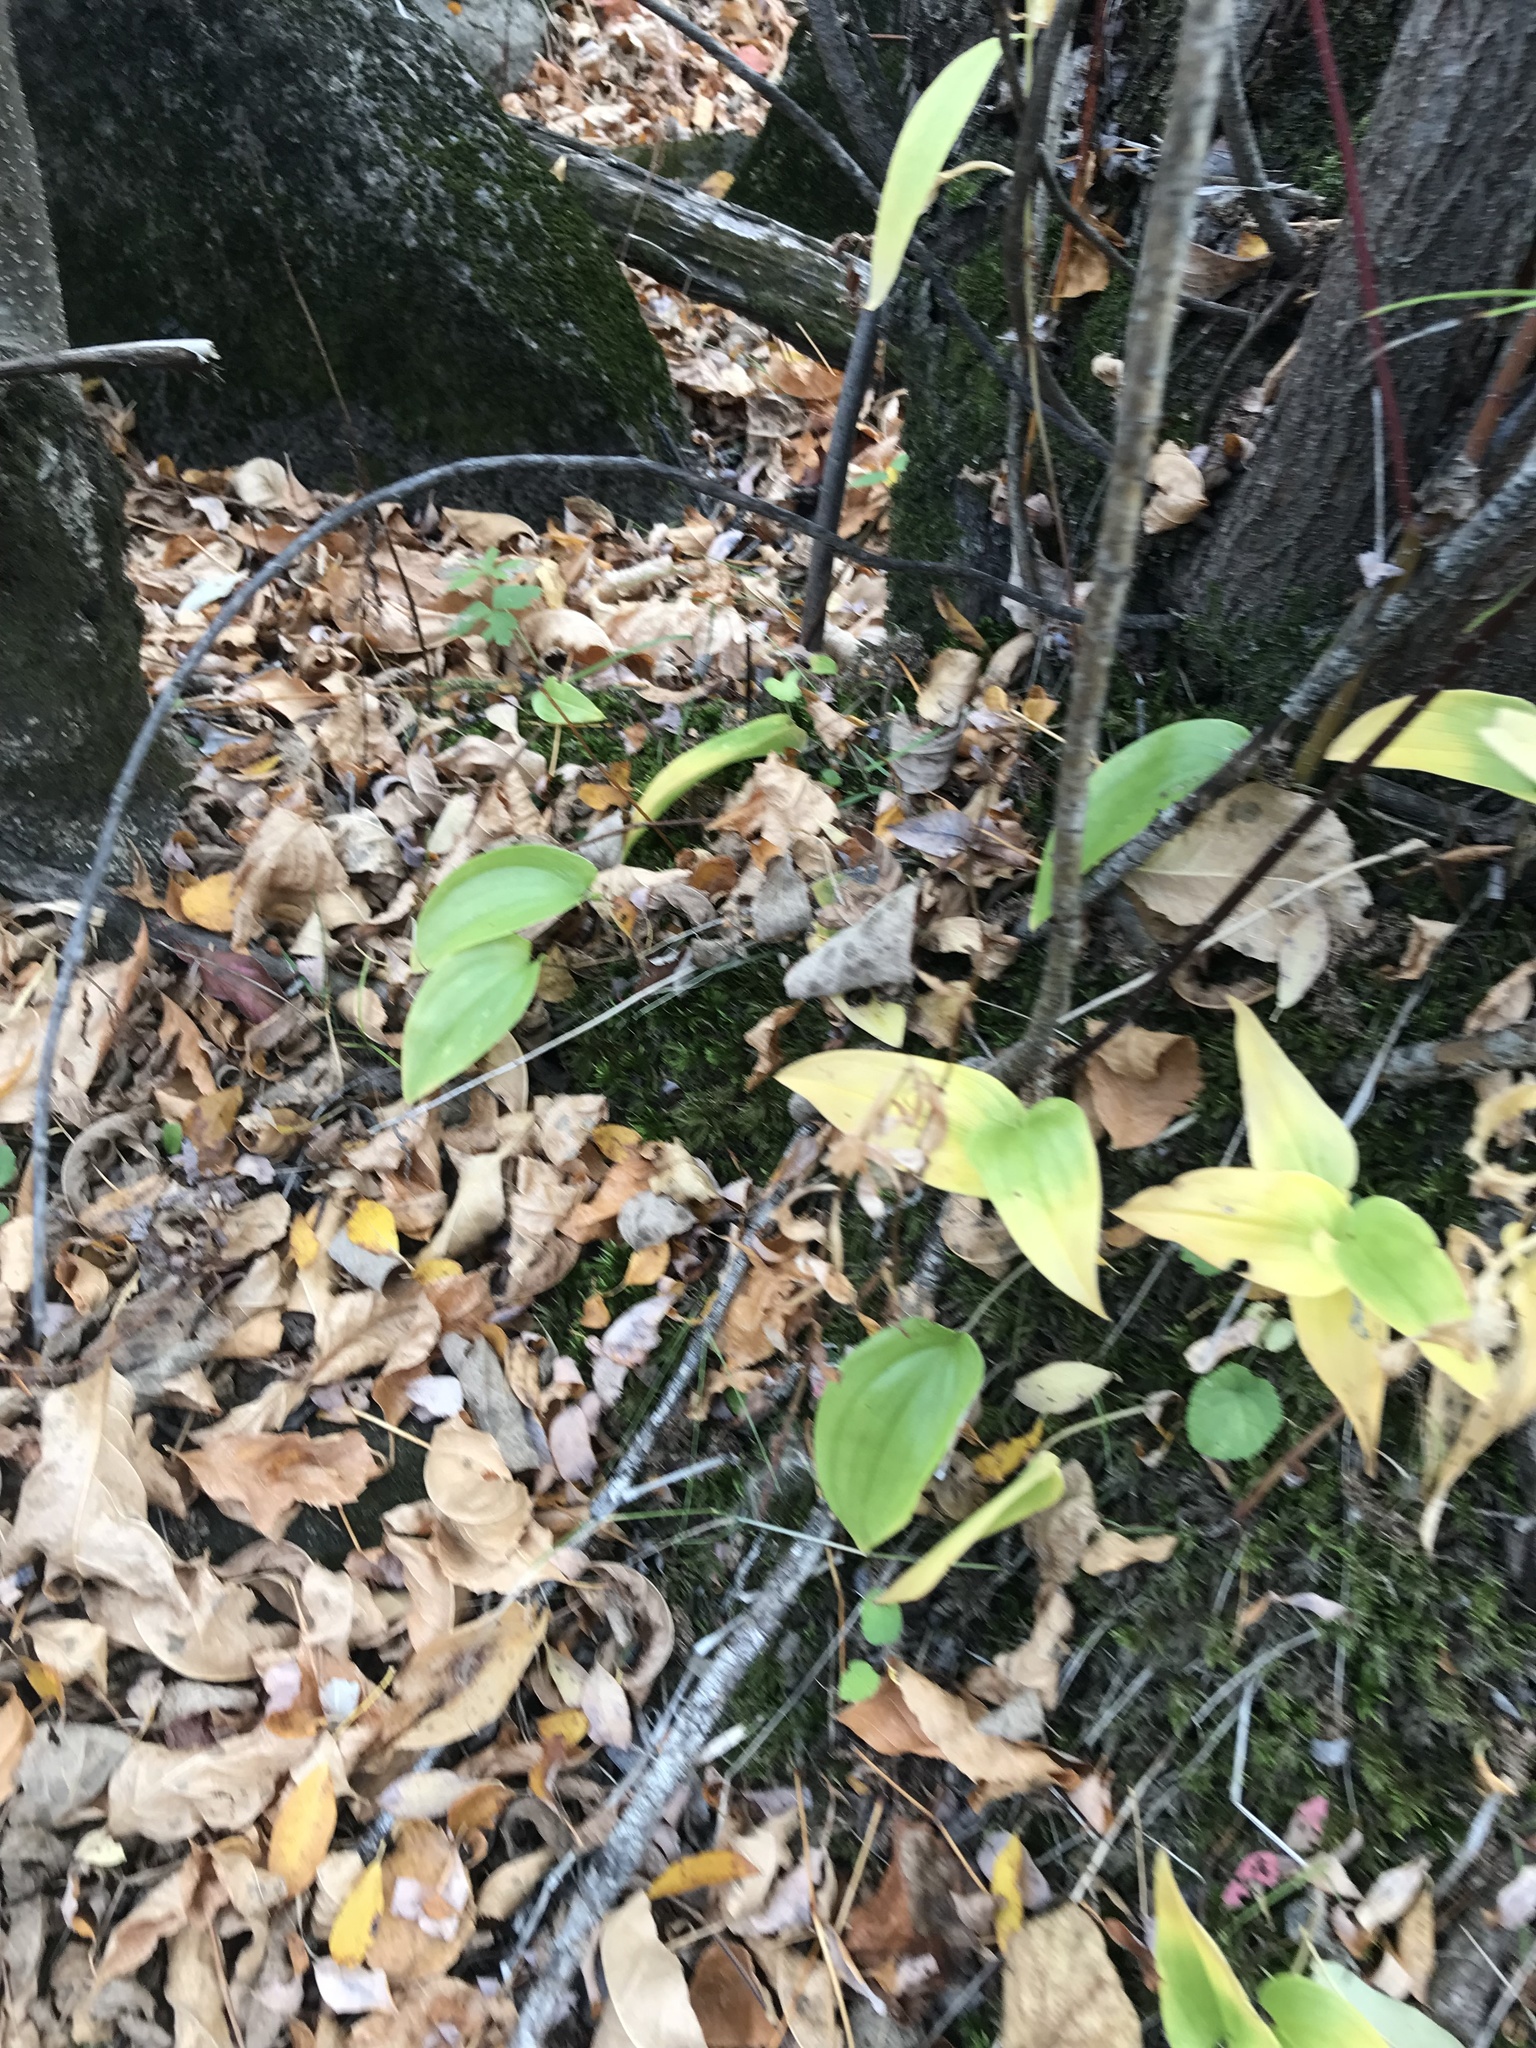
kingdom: Plantae
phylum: Tracheophyta
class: Liliopsida
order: Asparagales
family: Asparagaceae
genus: Maianthemum
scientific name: Maianthemum canadense
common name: False lily-of-the-valley
